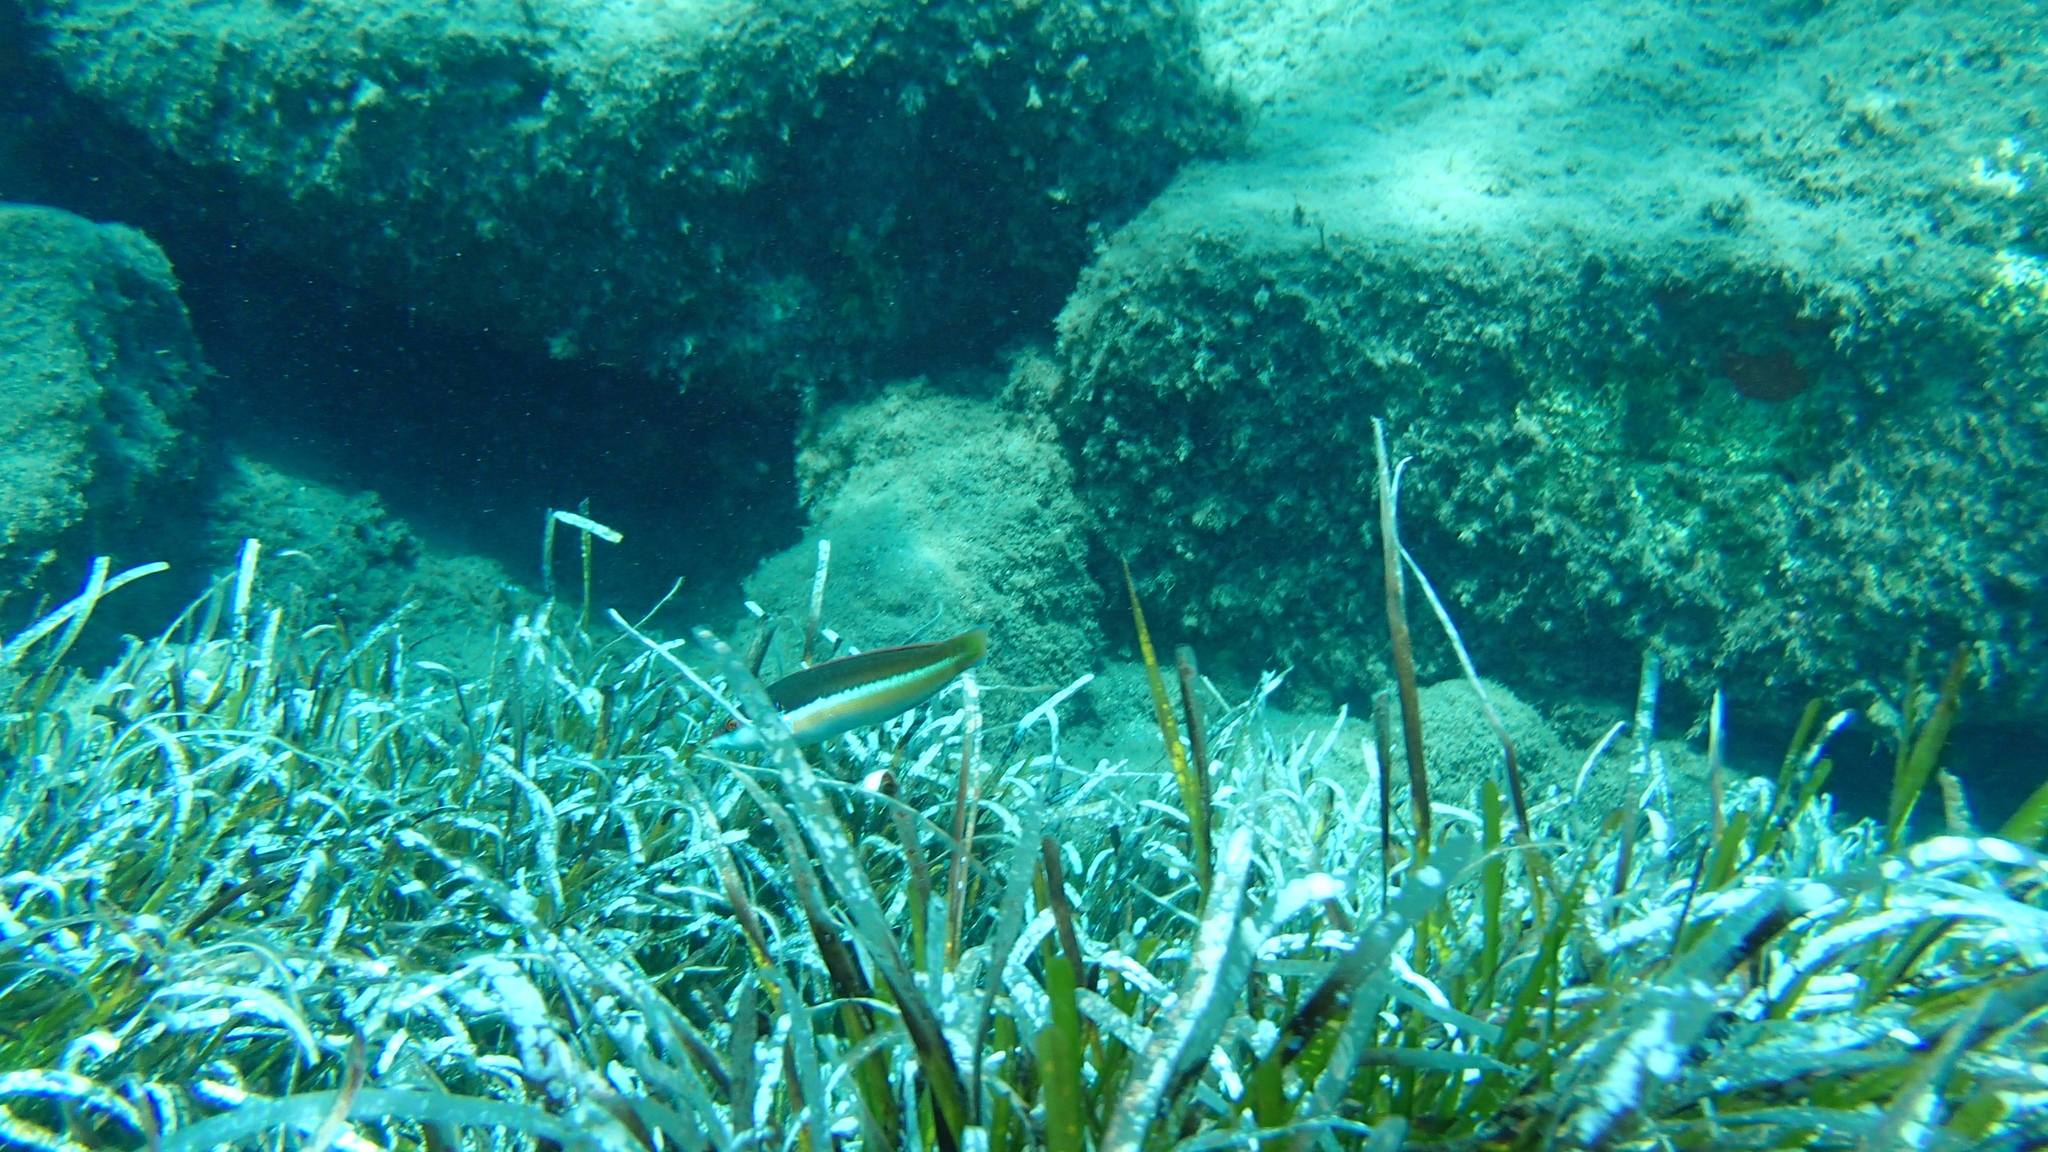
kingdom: Animalia
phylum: Chordata
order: Perciformes
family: Labridae
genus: Coris
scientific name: Coris julis
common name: Rainbow wrasse
